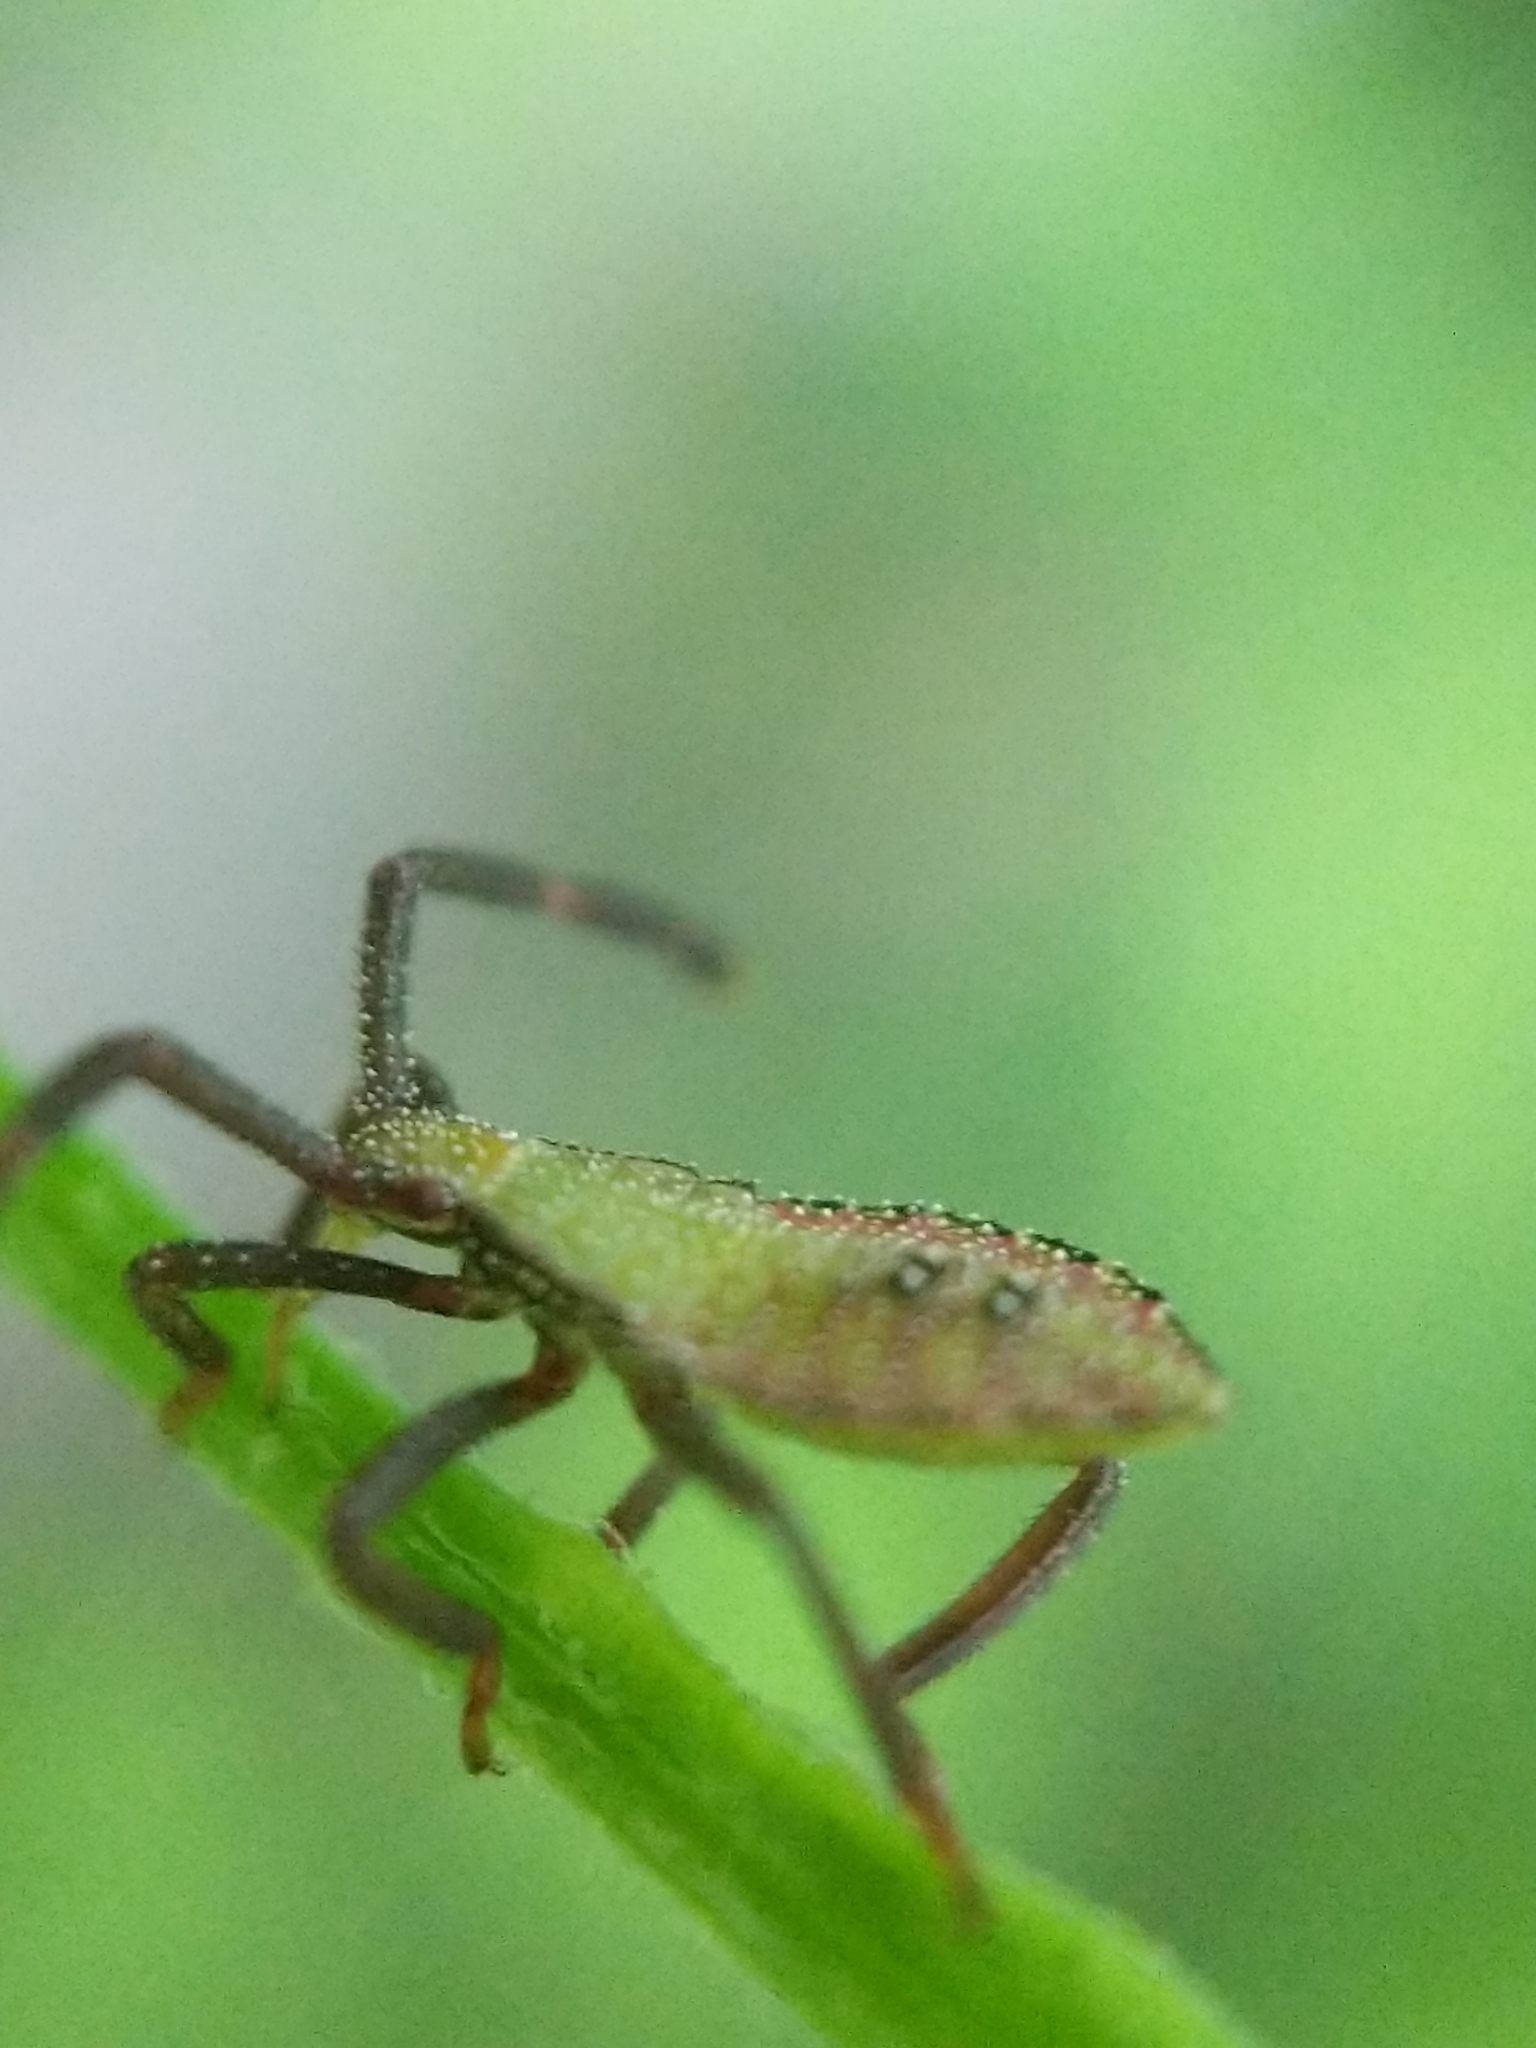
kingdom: Animalia
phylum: Arthropoda
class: Insecta
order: Hemiptera
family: Coreidae
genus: Piezogaster
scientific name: Piezogaster calcarator
